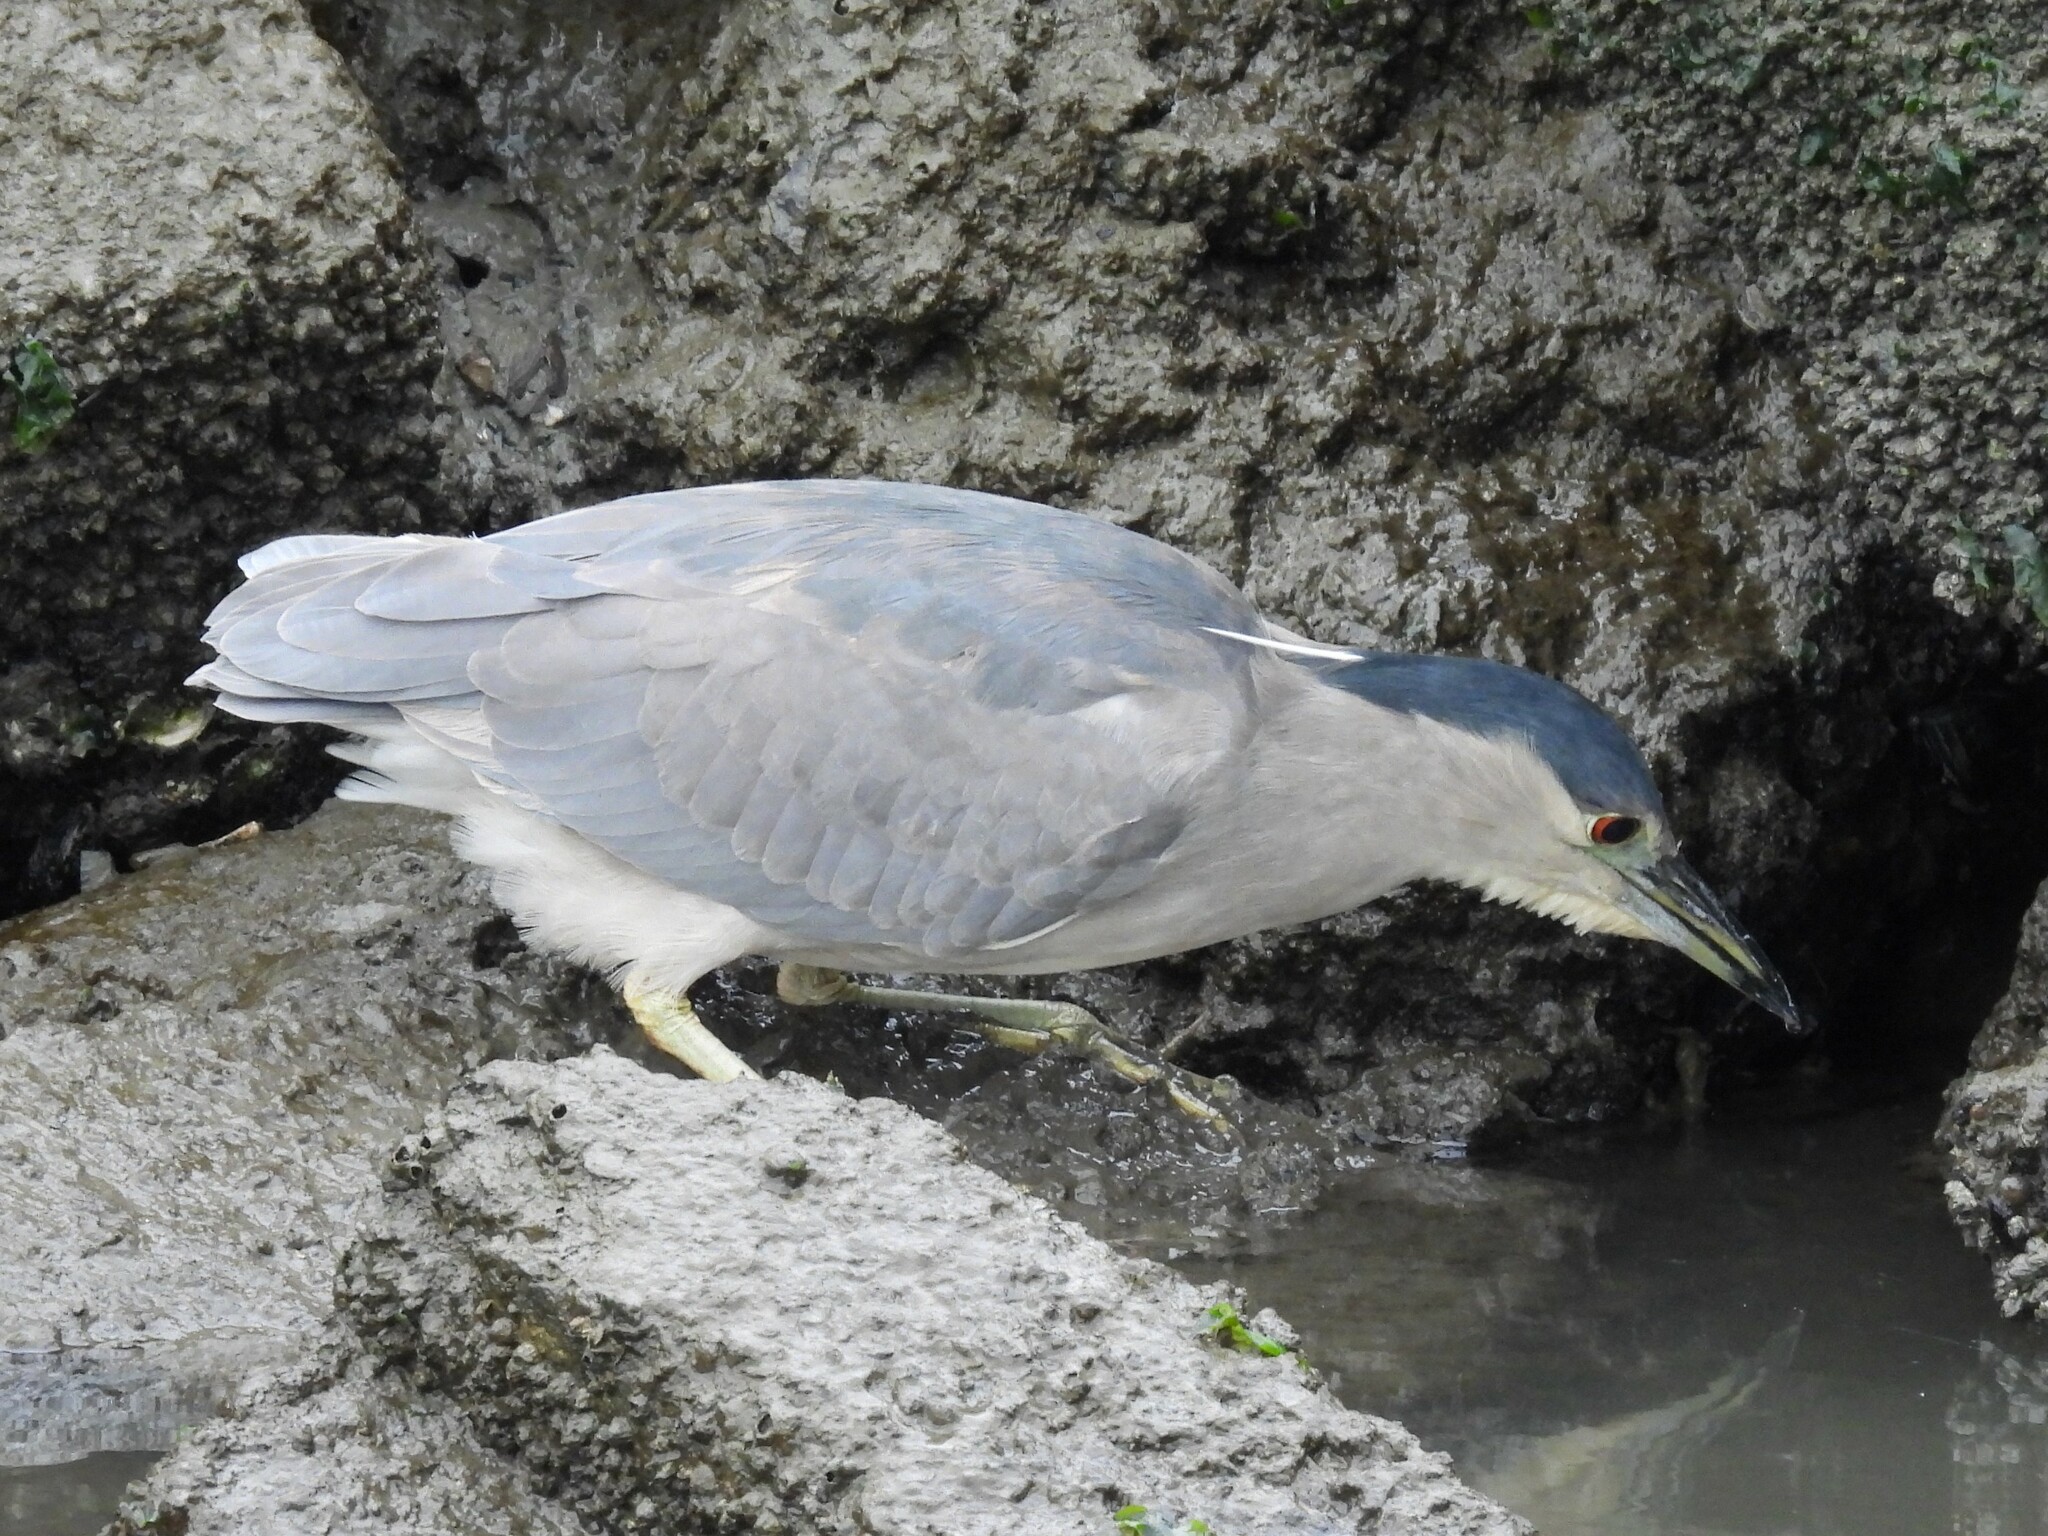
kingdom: Animalia
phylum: Chordata
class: Aves
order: Pelecaniformes
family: Ardeidae
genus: Nycticorax
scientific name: Nycticorax nycticorax
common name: Black-crowned night heron
